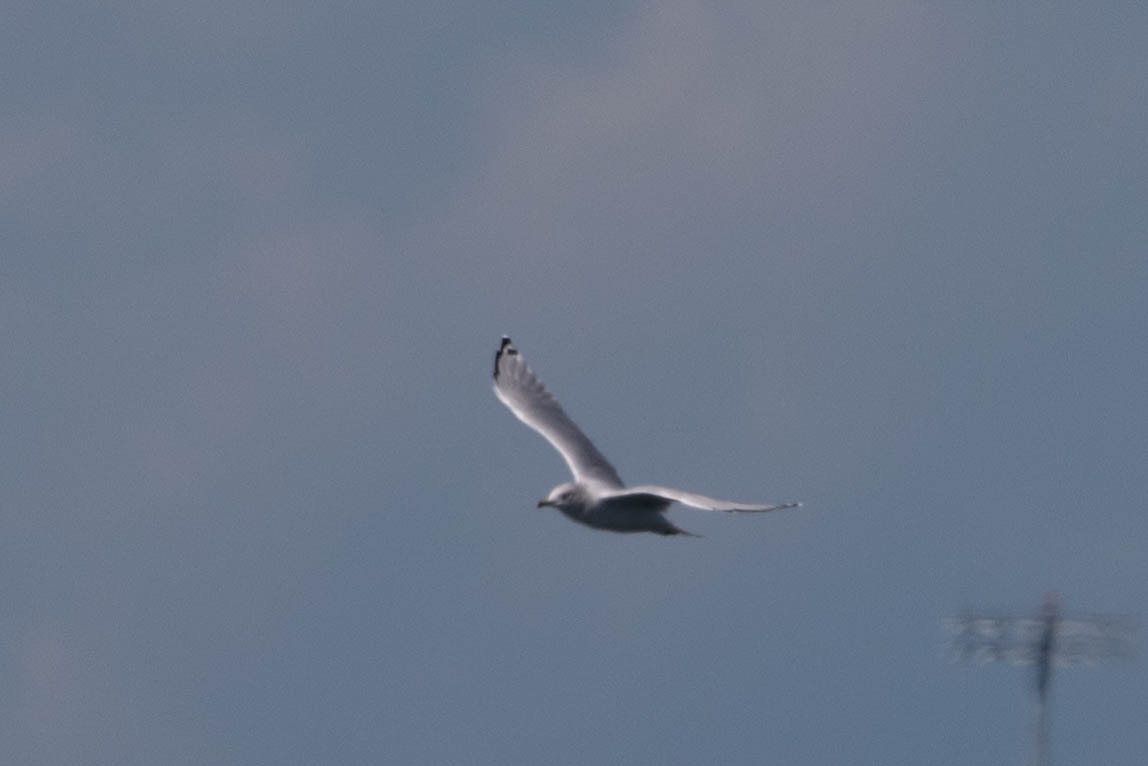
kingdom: Animalia
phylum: Chordata
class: Aves
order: Charadriiformes
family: Laridae
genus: Larus
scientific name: Larus delawarensis
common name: Ring-billed gull
